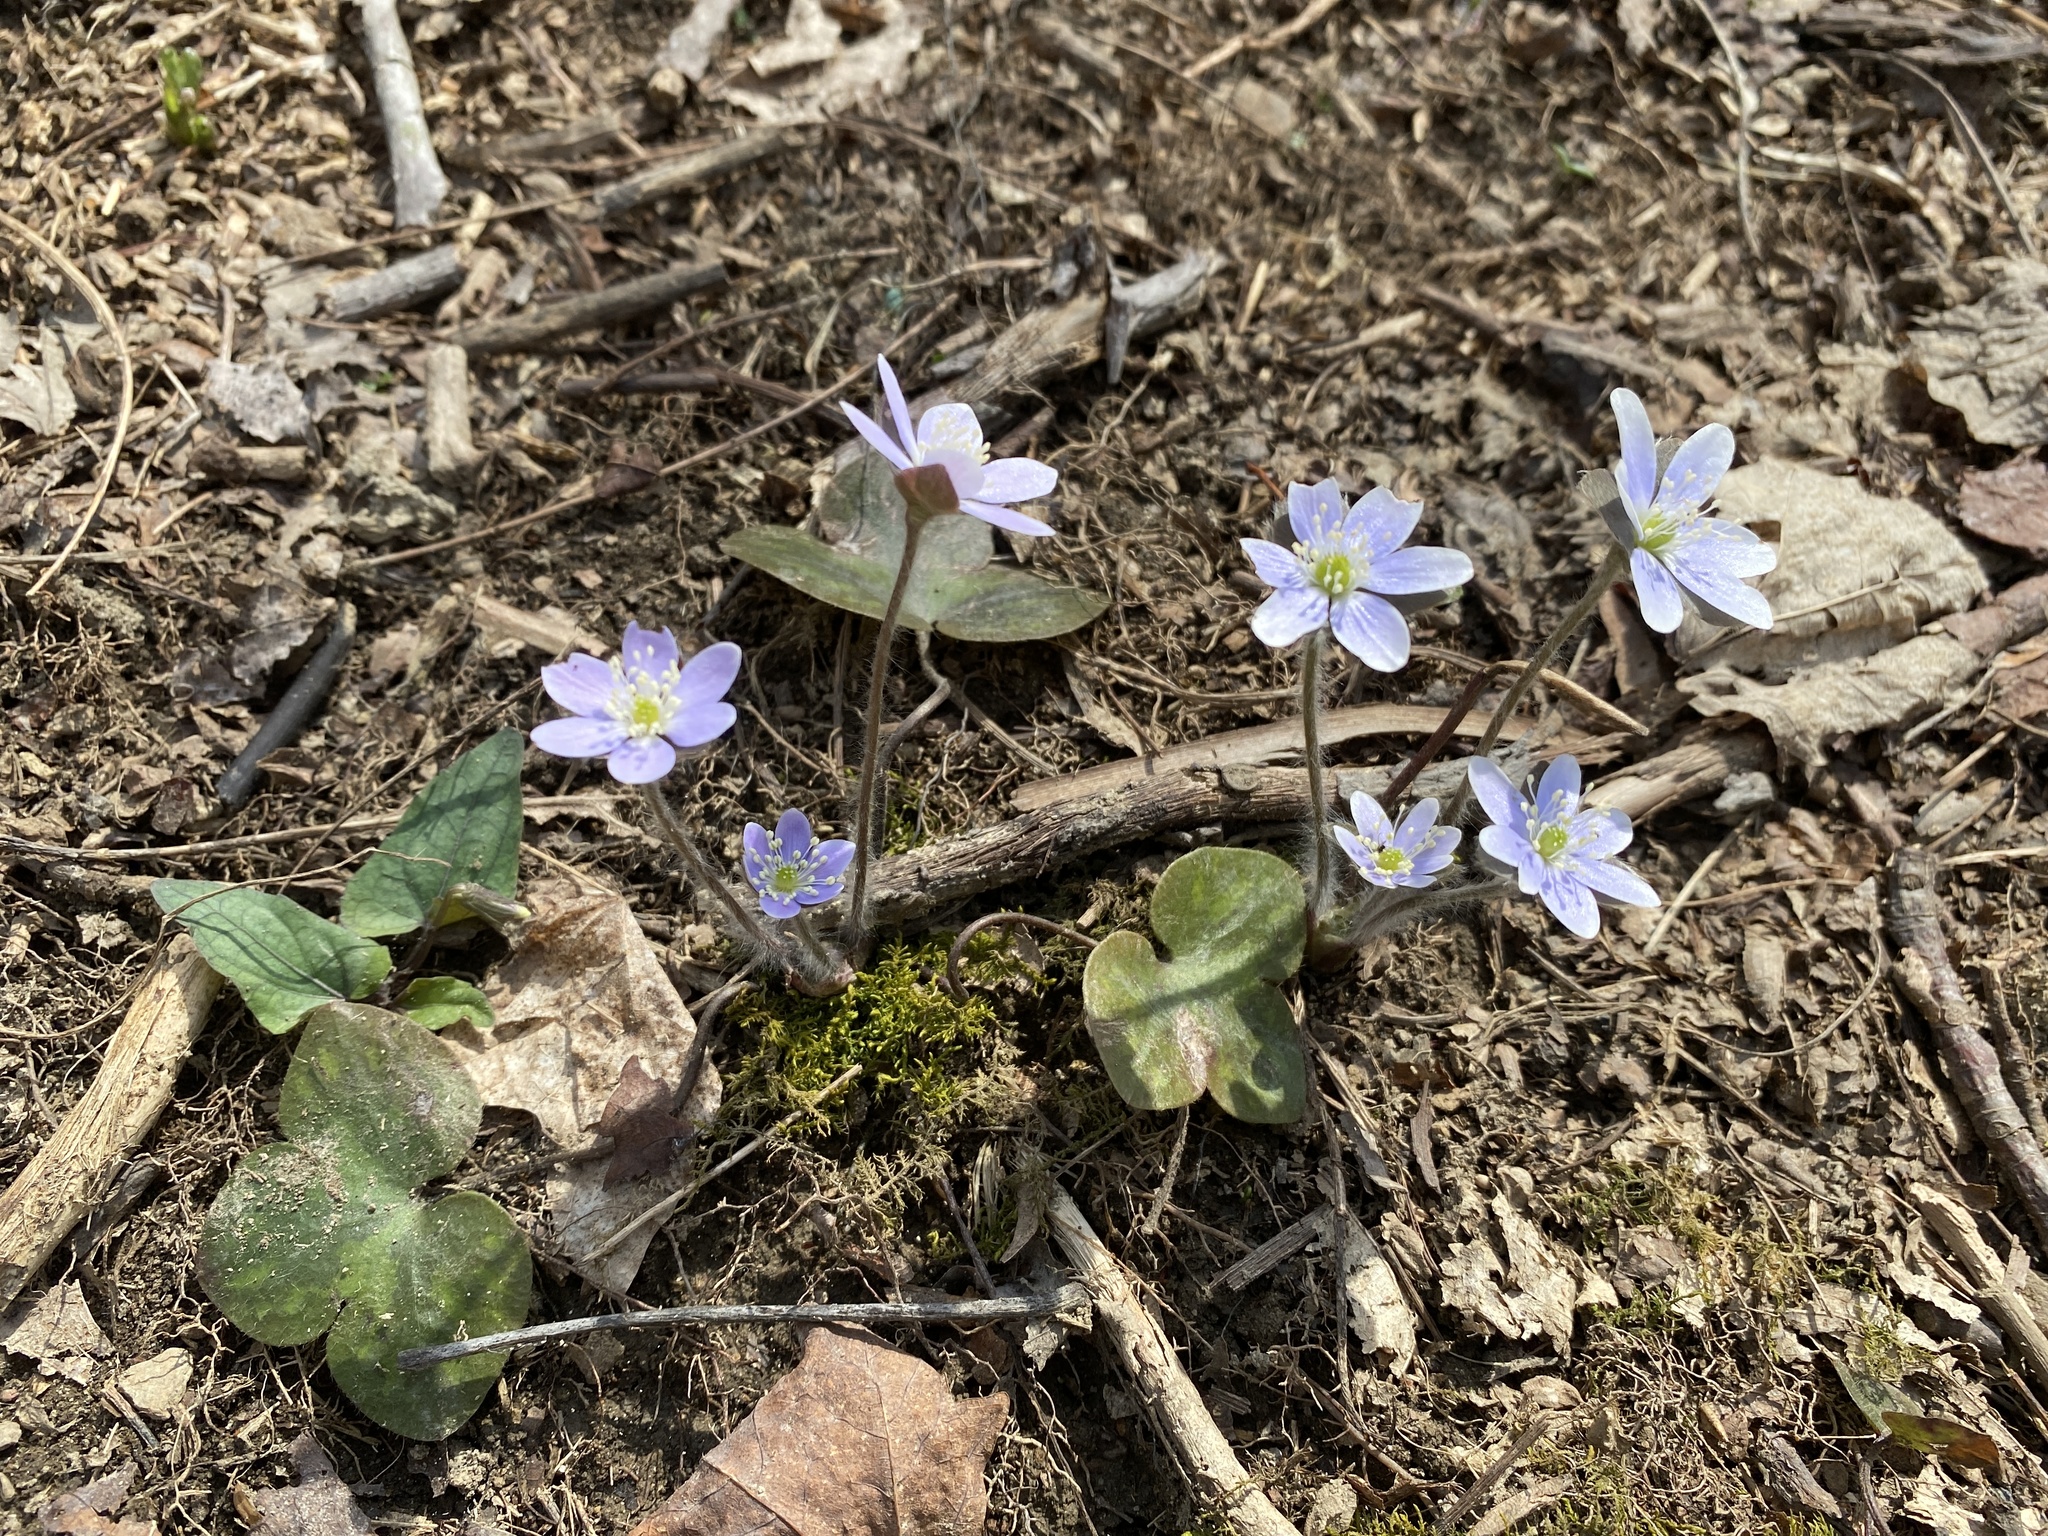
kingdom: Plantae
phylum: Tracheophyta
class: Magnoliopsida
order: Ranunculales
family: Ranunculaceae
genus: Hepatica
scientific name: Hepatica americana
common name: American hepatica
